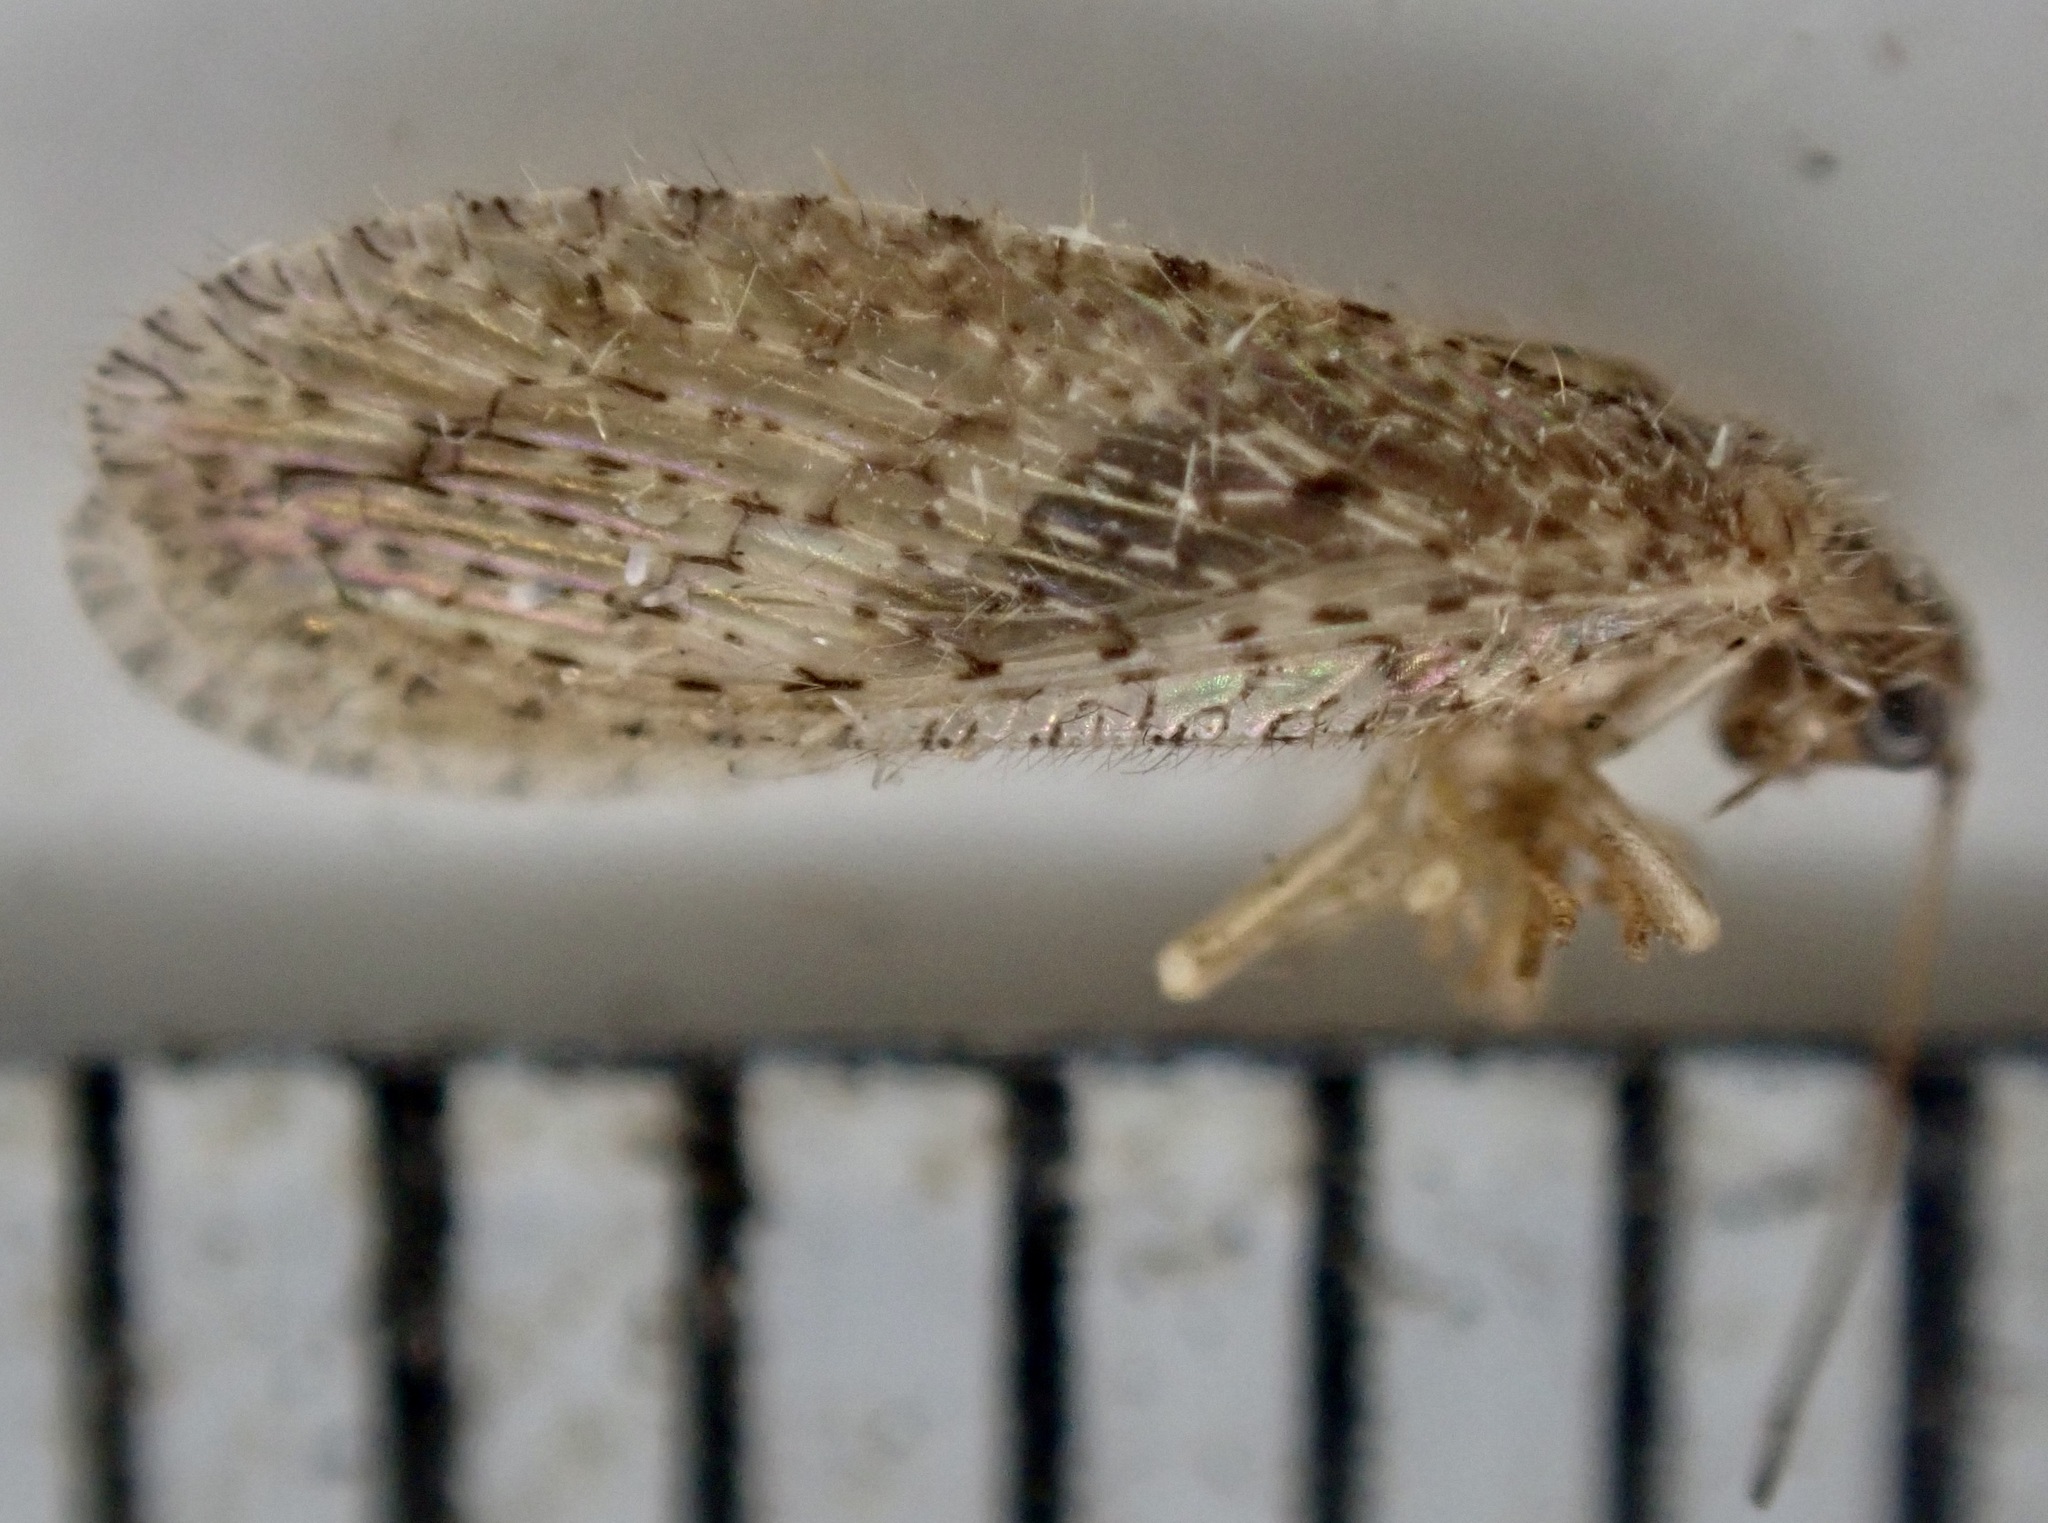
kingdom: Animalia
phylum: Arthropoda
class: Insecta
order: Neuroptera
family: Hemerobiidae
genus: Micromus
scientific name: Micromus tasmaniae
